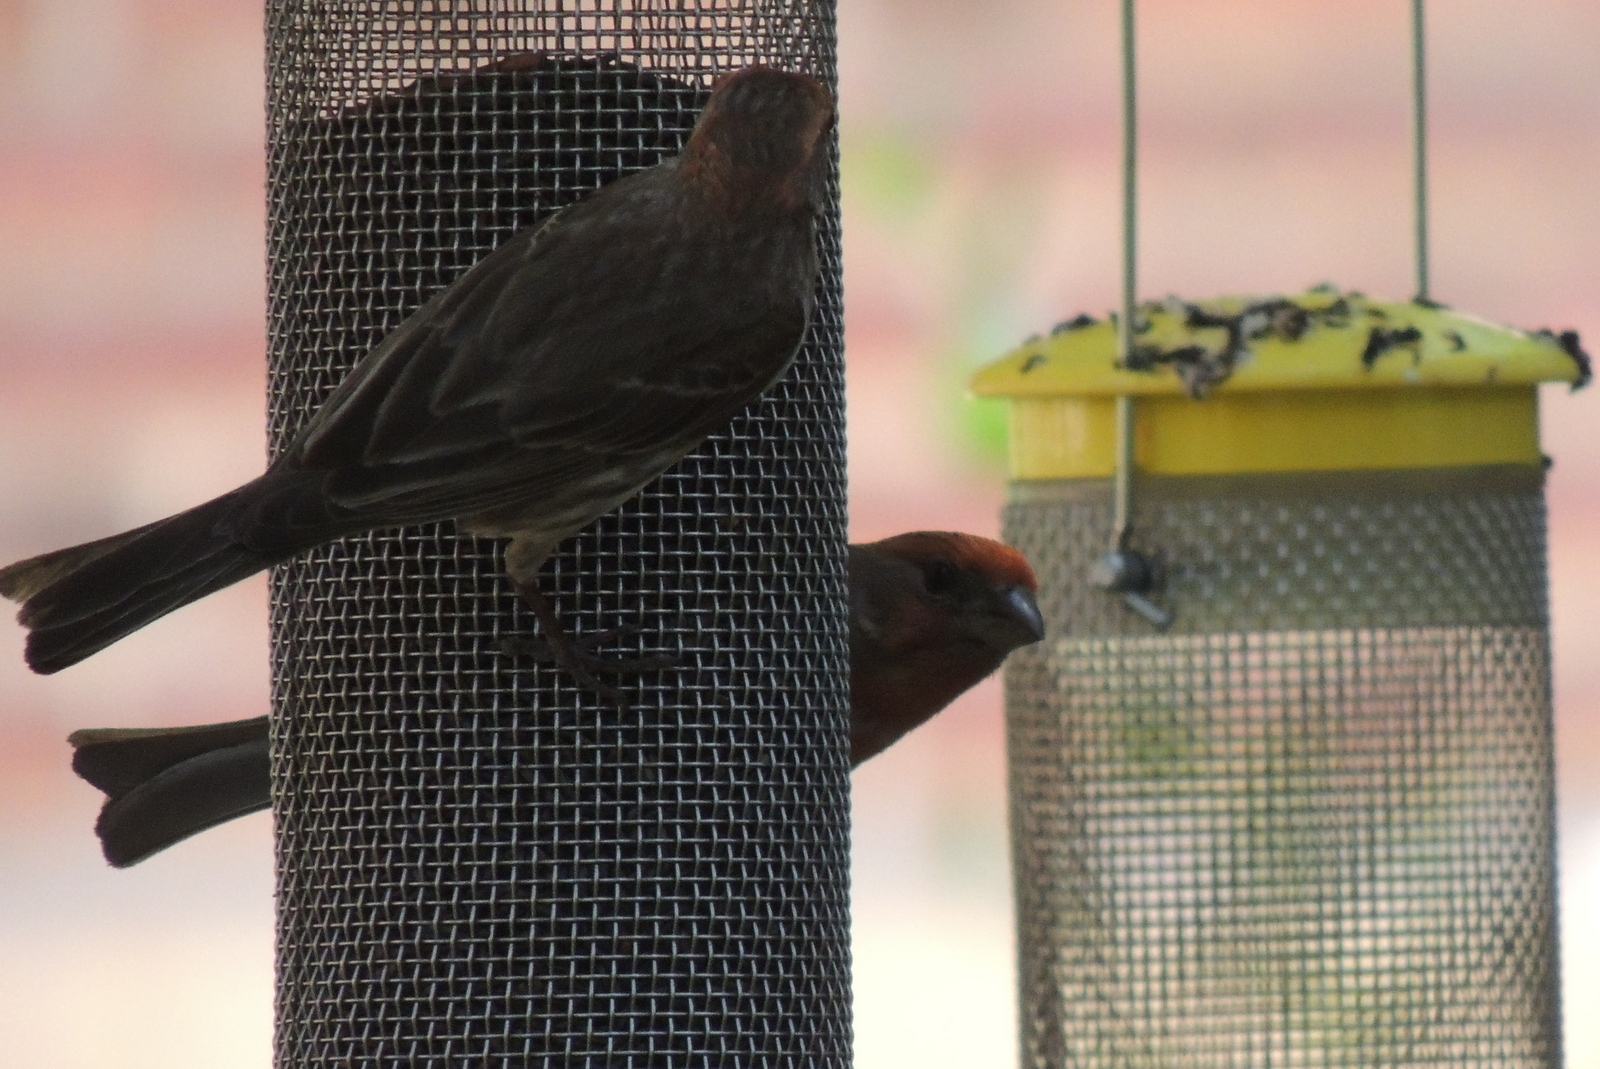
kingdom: Animalia
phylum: Chordata
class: Aves
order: Passeriformes
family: Fringillidae
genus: Haemorhous
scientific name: Haemorhous mexicanus
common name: House finch
